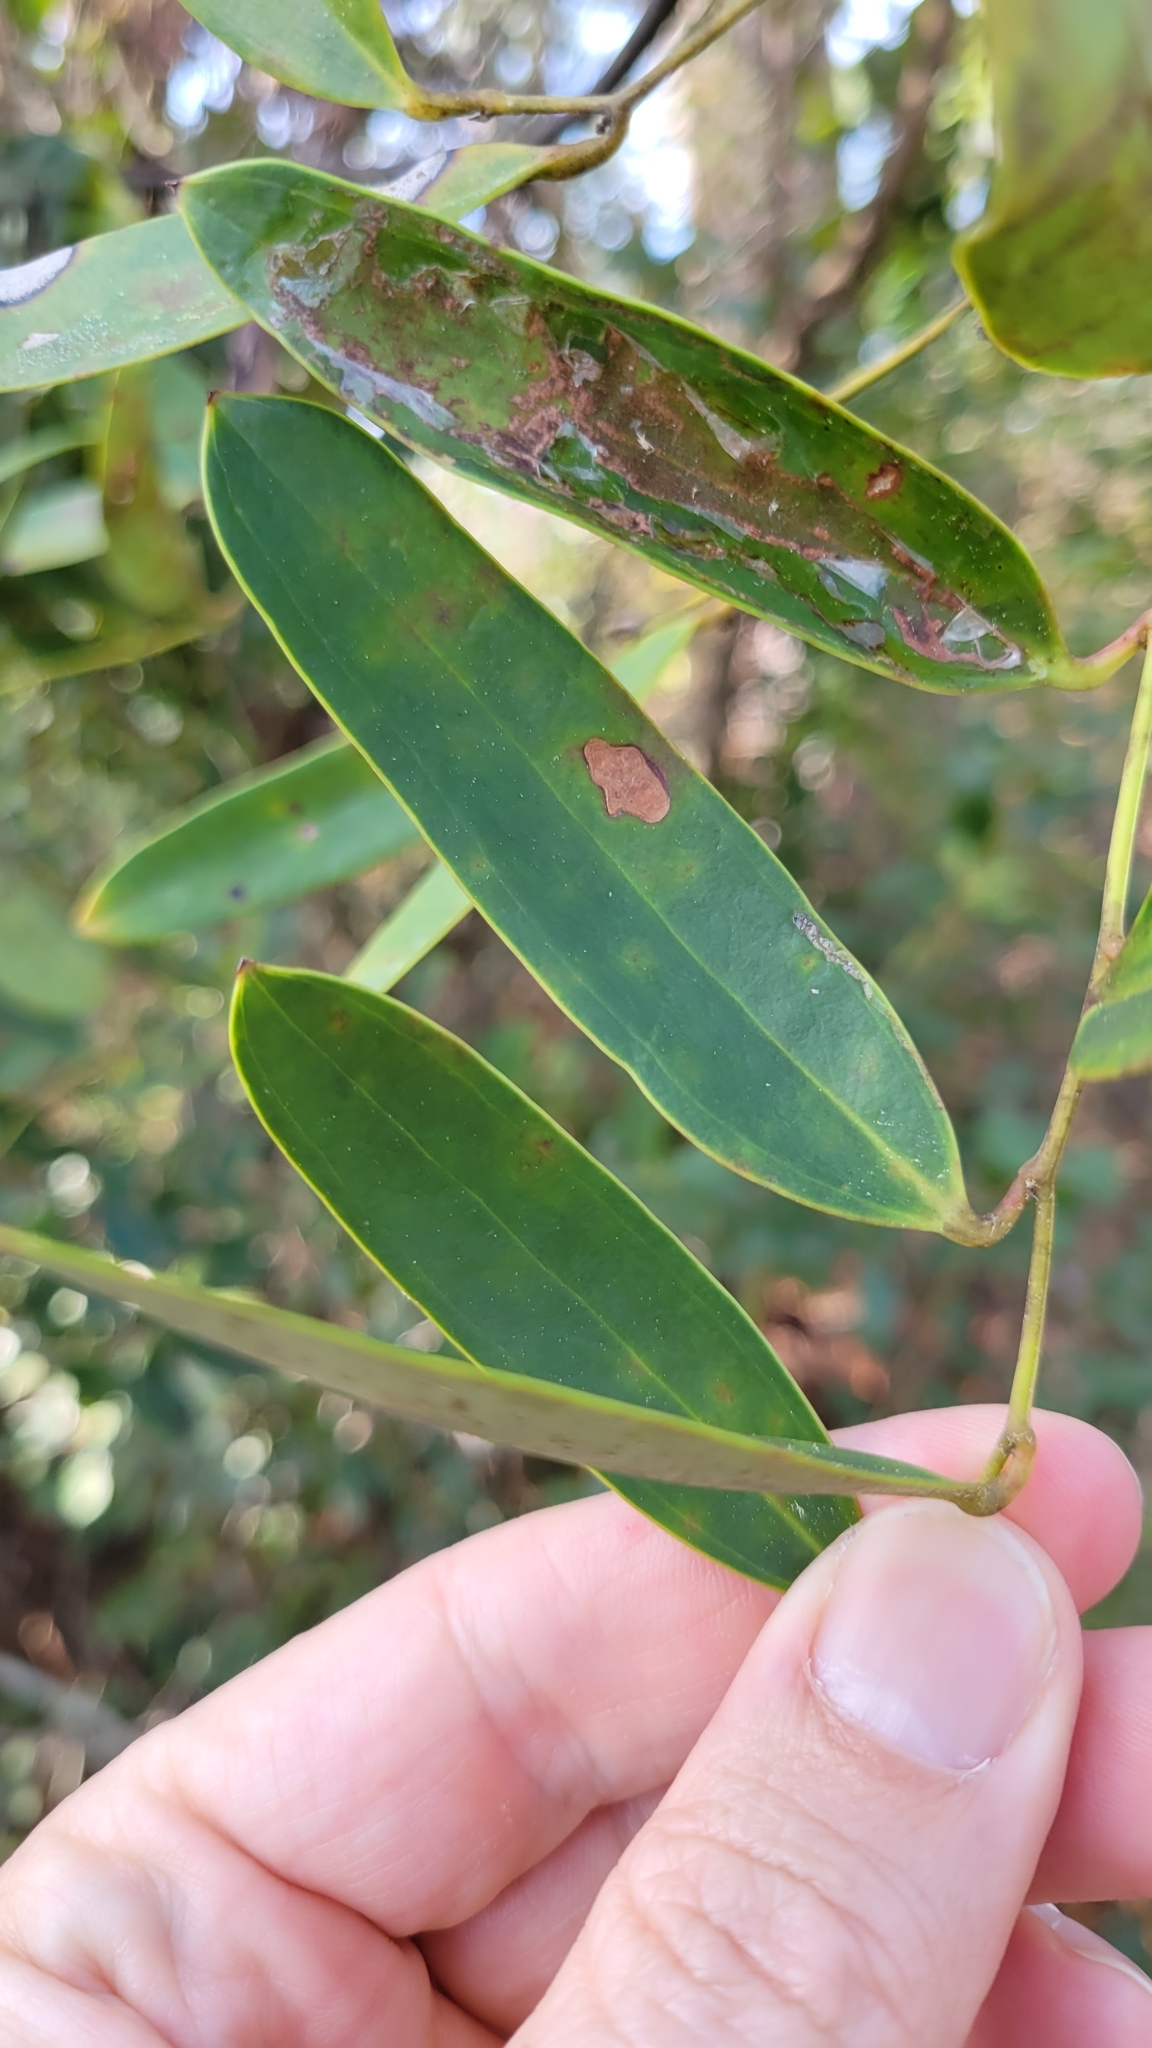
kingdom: Plantae
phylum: Tracheophyta
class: Liliopsida
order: Liliales
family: Smilacaceae
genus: Smilax
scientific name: Smilax laurifolia
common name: Bamboovine
